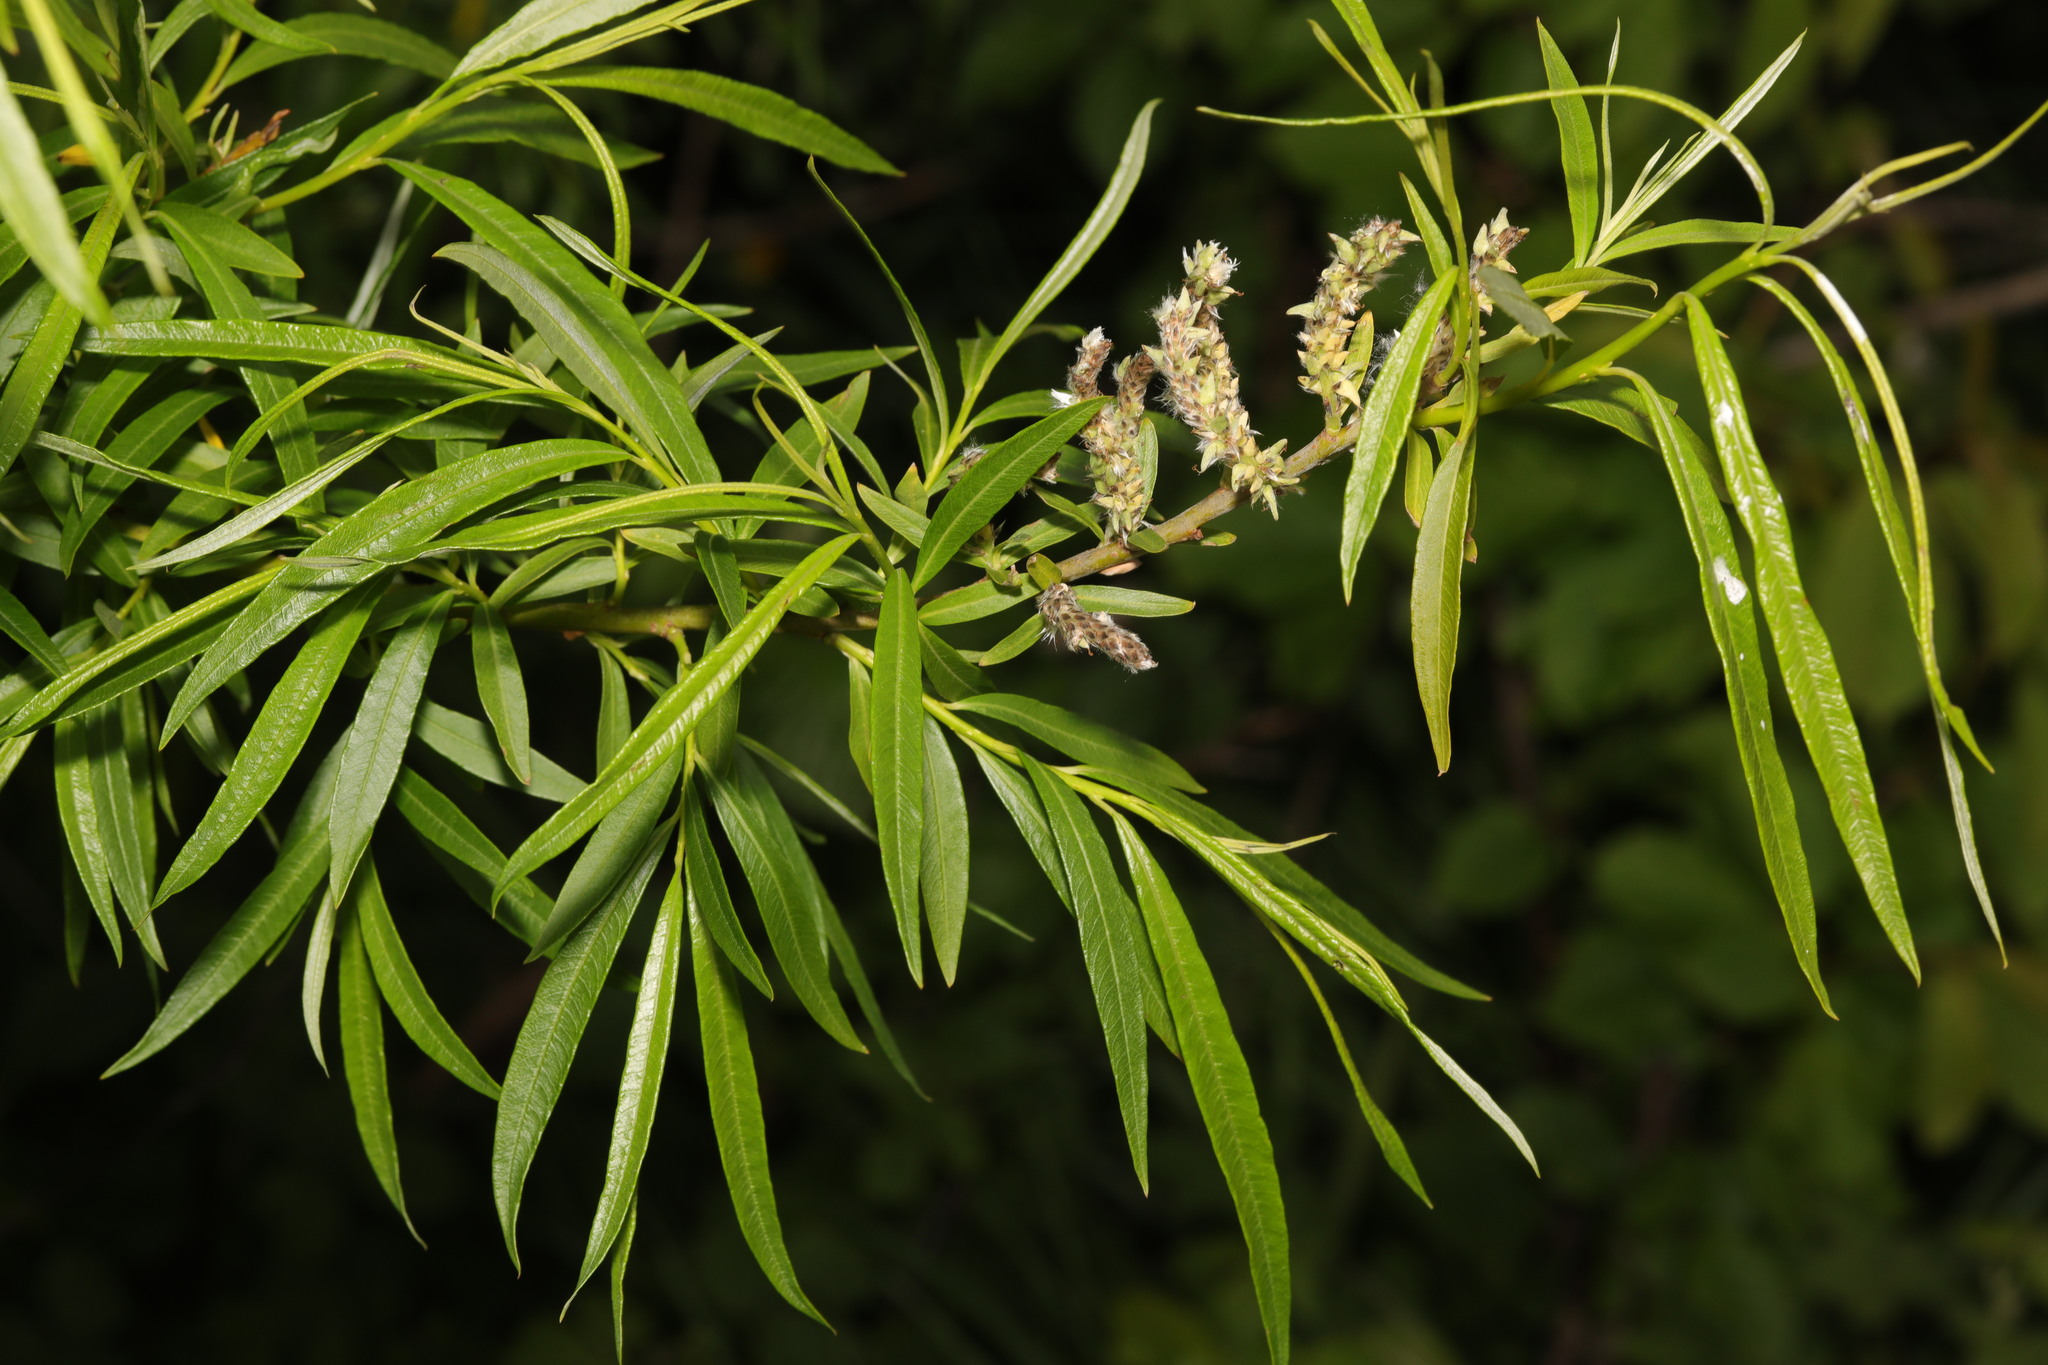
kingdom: Plantae
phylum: Tracheophyta
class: Magnoliopsida
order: Malpighiales
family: Salicaceae
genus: Salix
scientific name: Salix viminalis
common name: Osier
